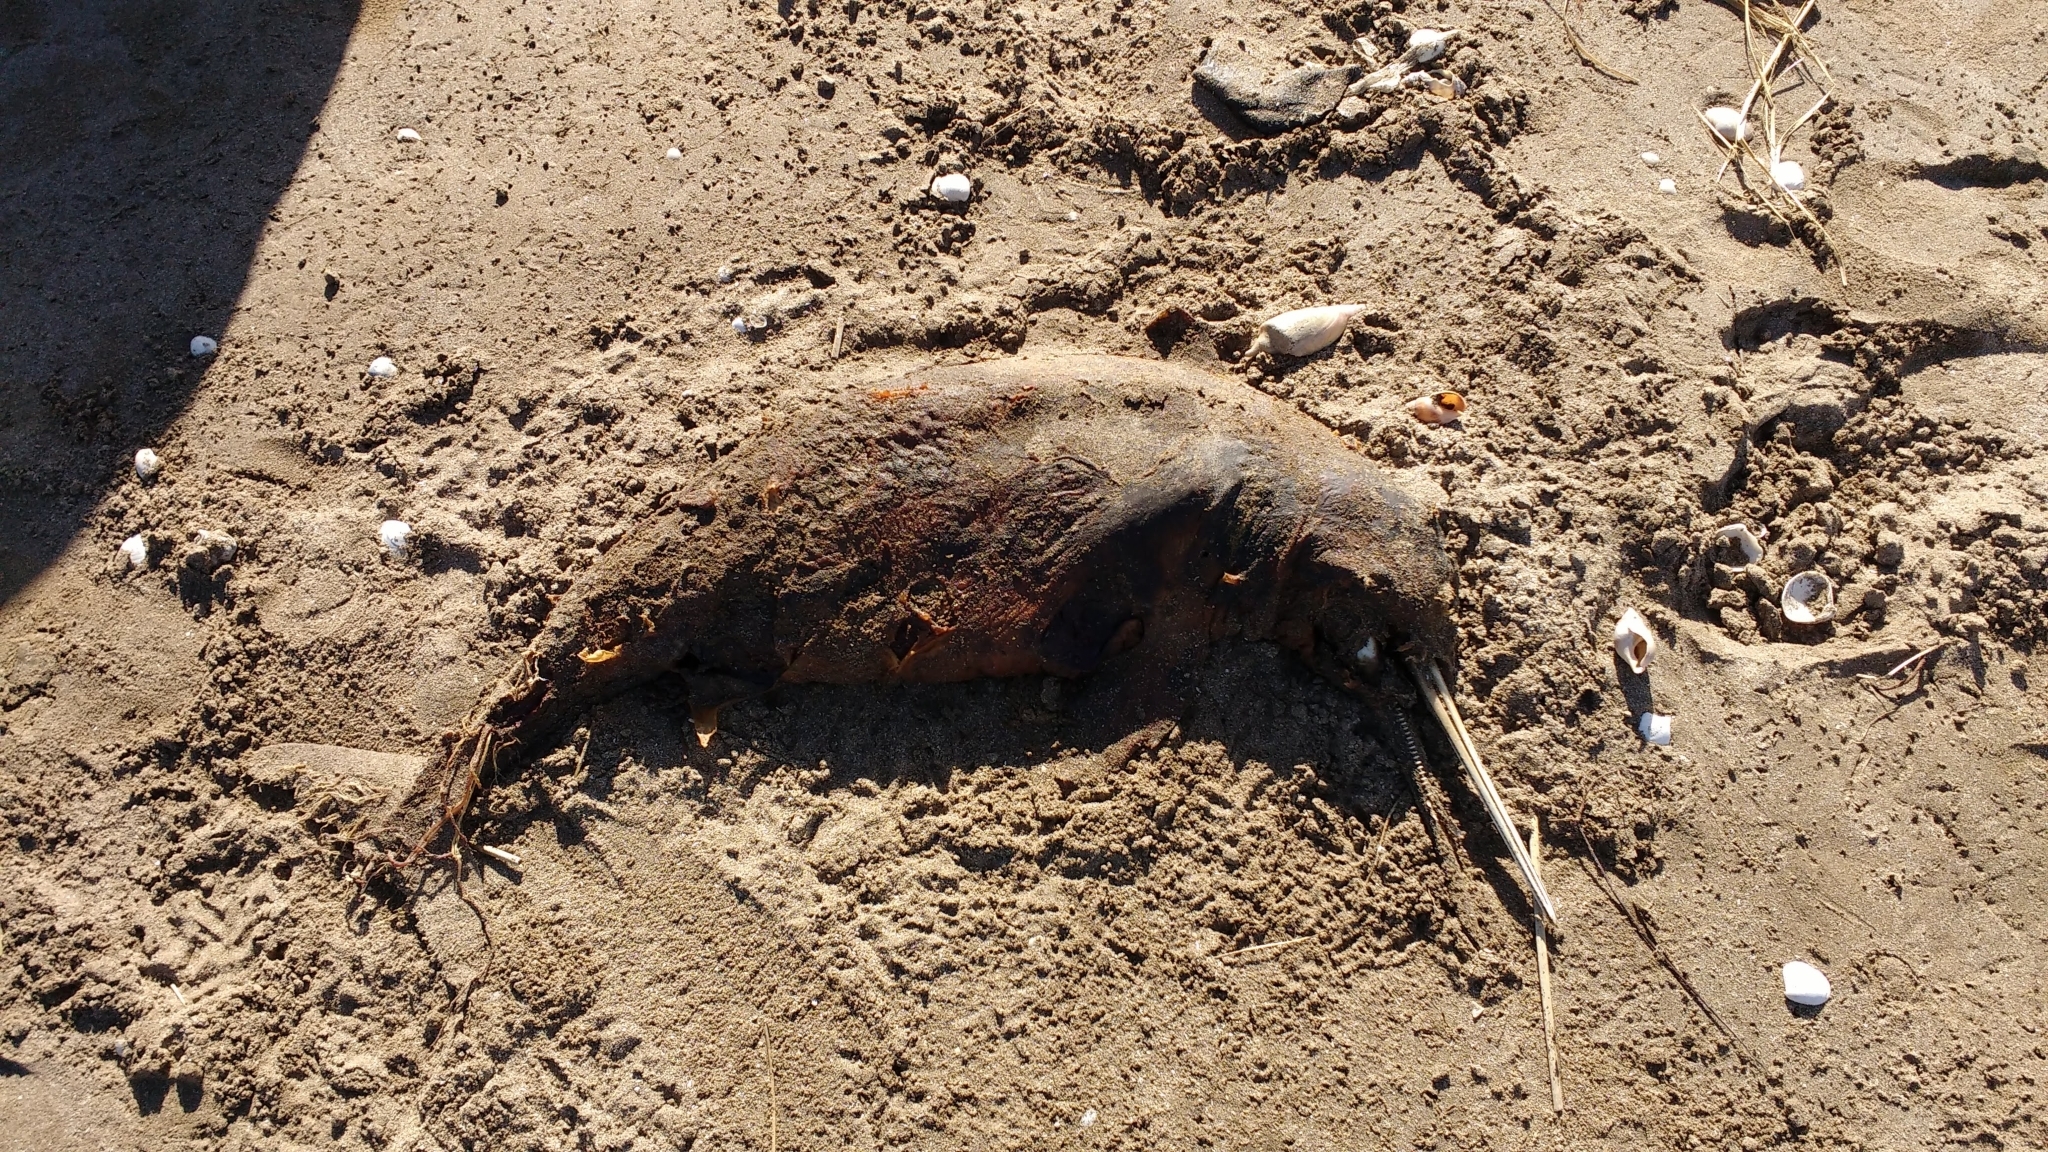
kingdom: Animalia
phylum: Chordata
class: Mammalia
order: Cetacea
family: Pontoporiidae
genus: Pontoporia
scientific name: Pontoporia blainvillei
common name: Franciscana
